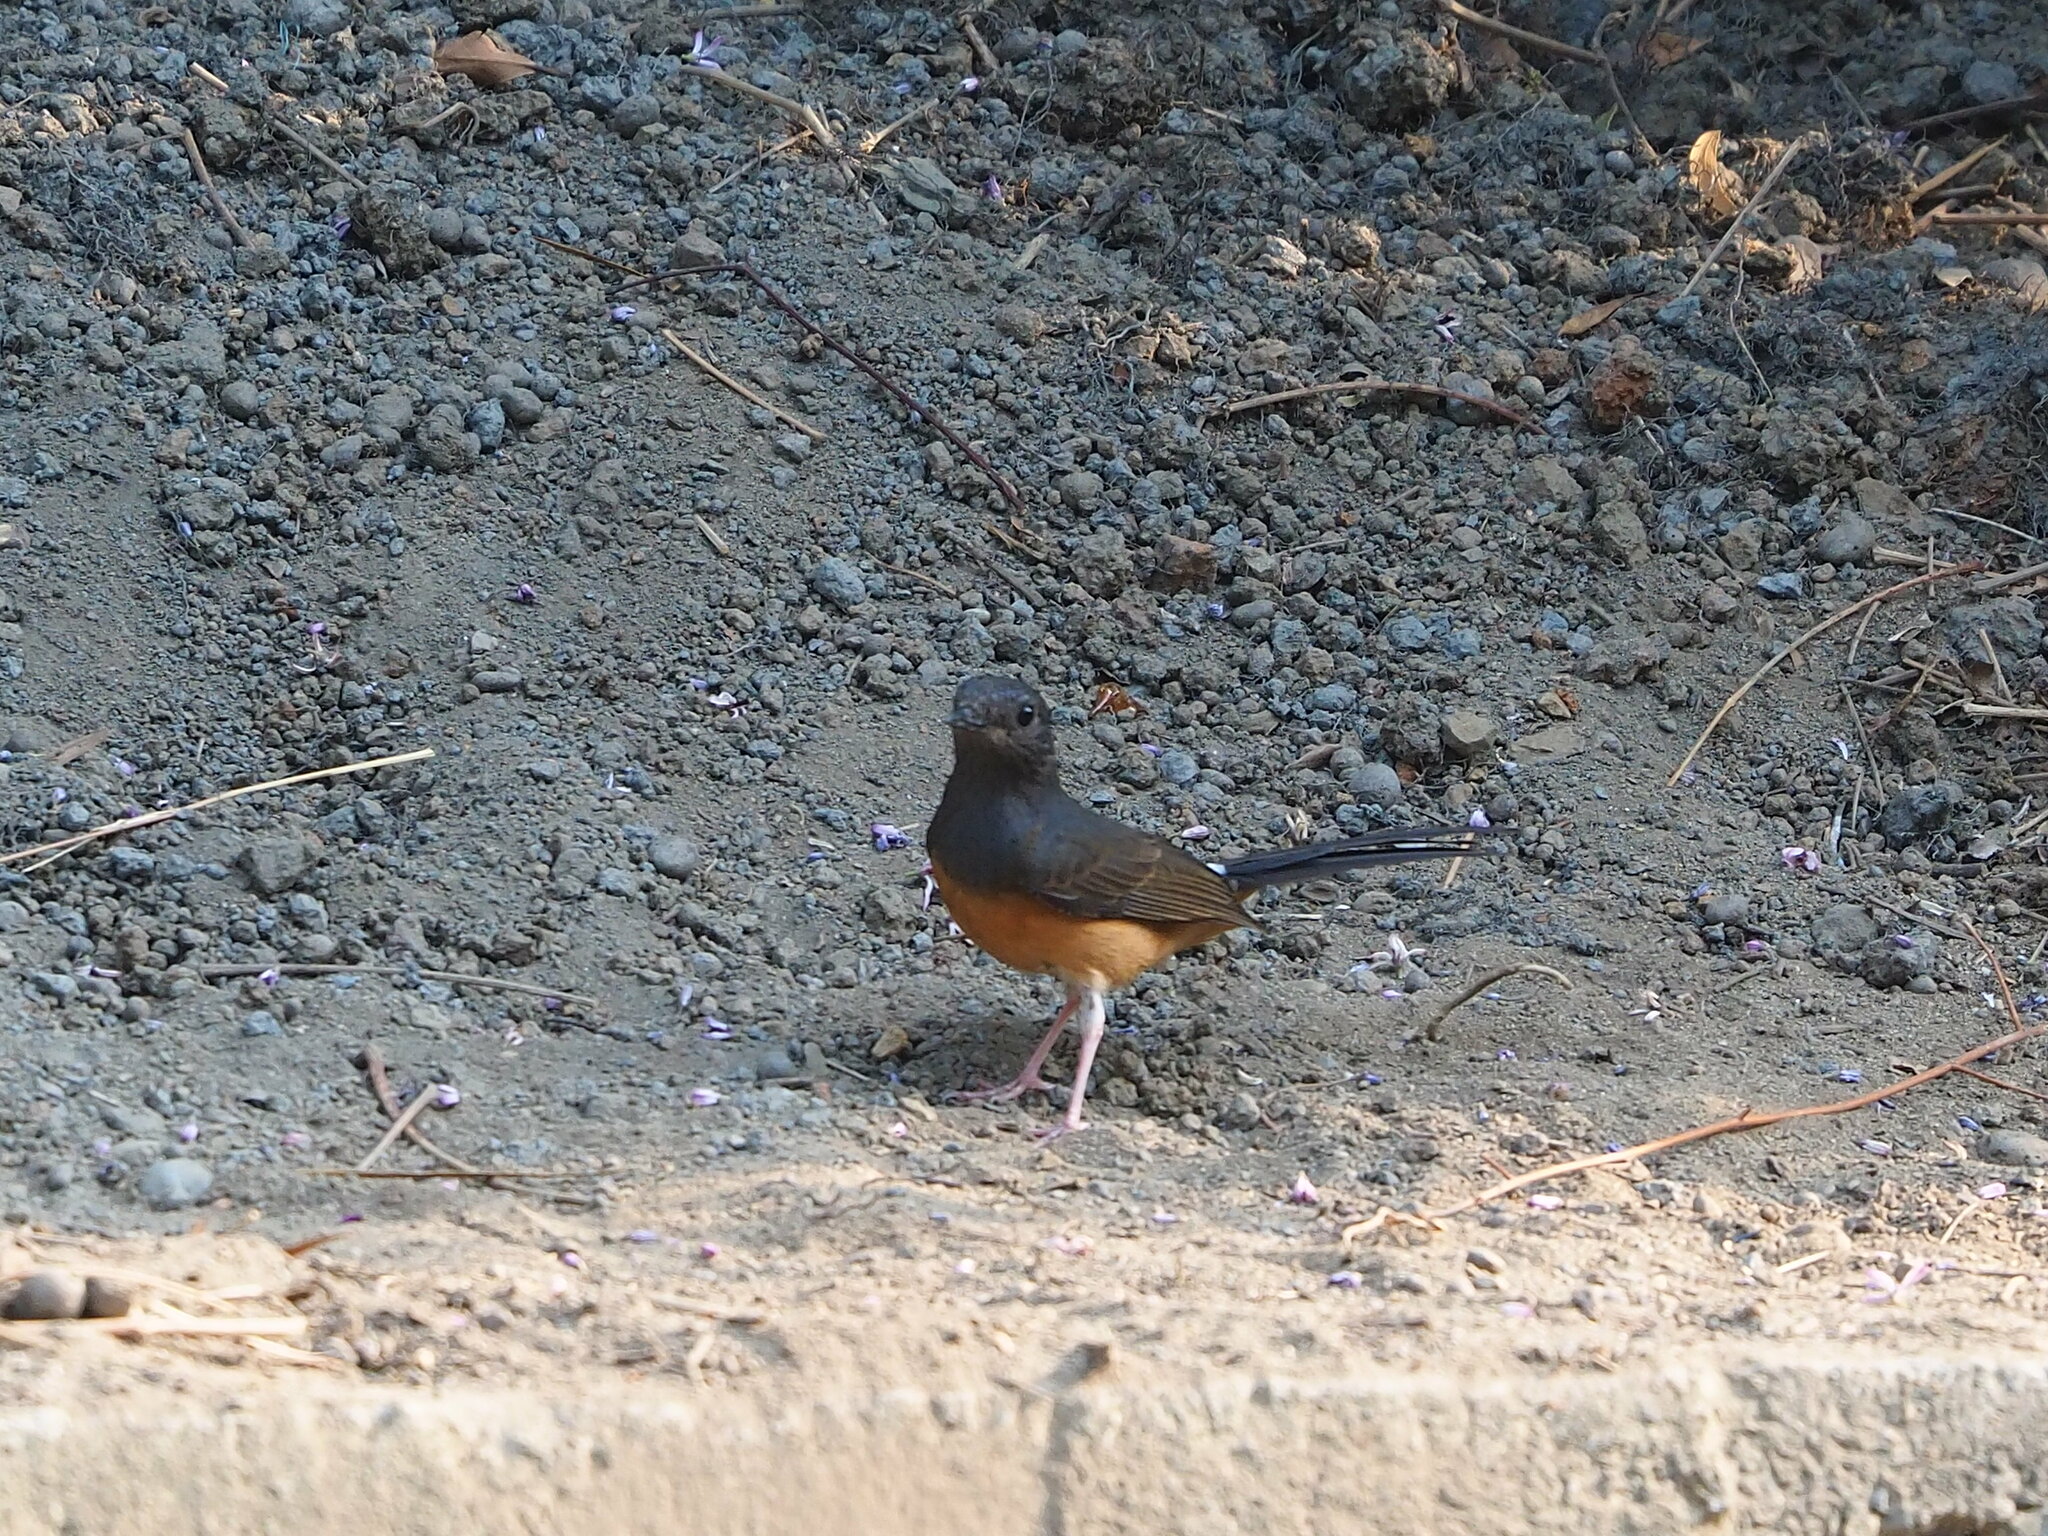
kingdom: Animalia
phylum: Chordata
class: Aves
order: Passeriformes
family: Muscicapidae
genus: Copsychus
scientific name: Copsychus malabaricus
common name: White-rumped shama
